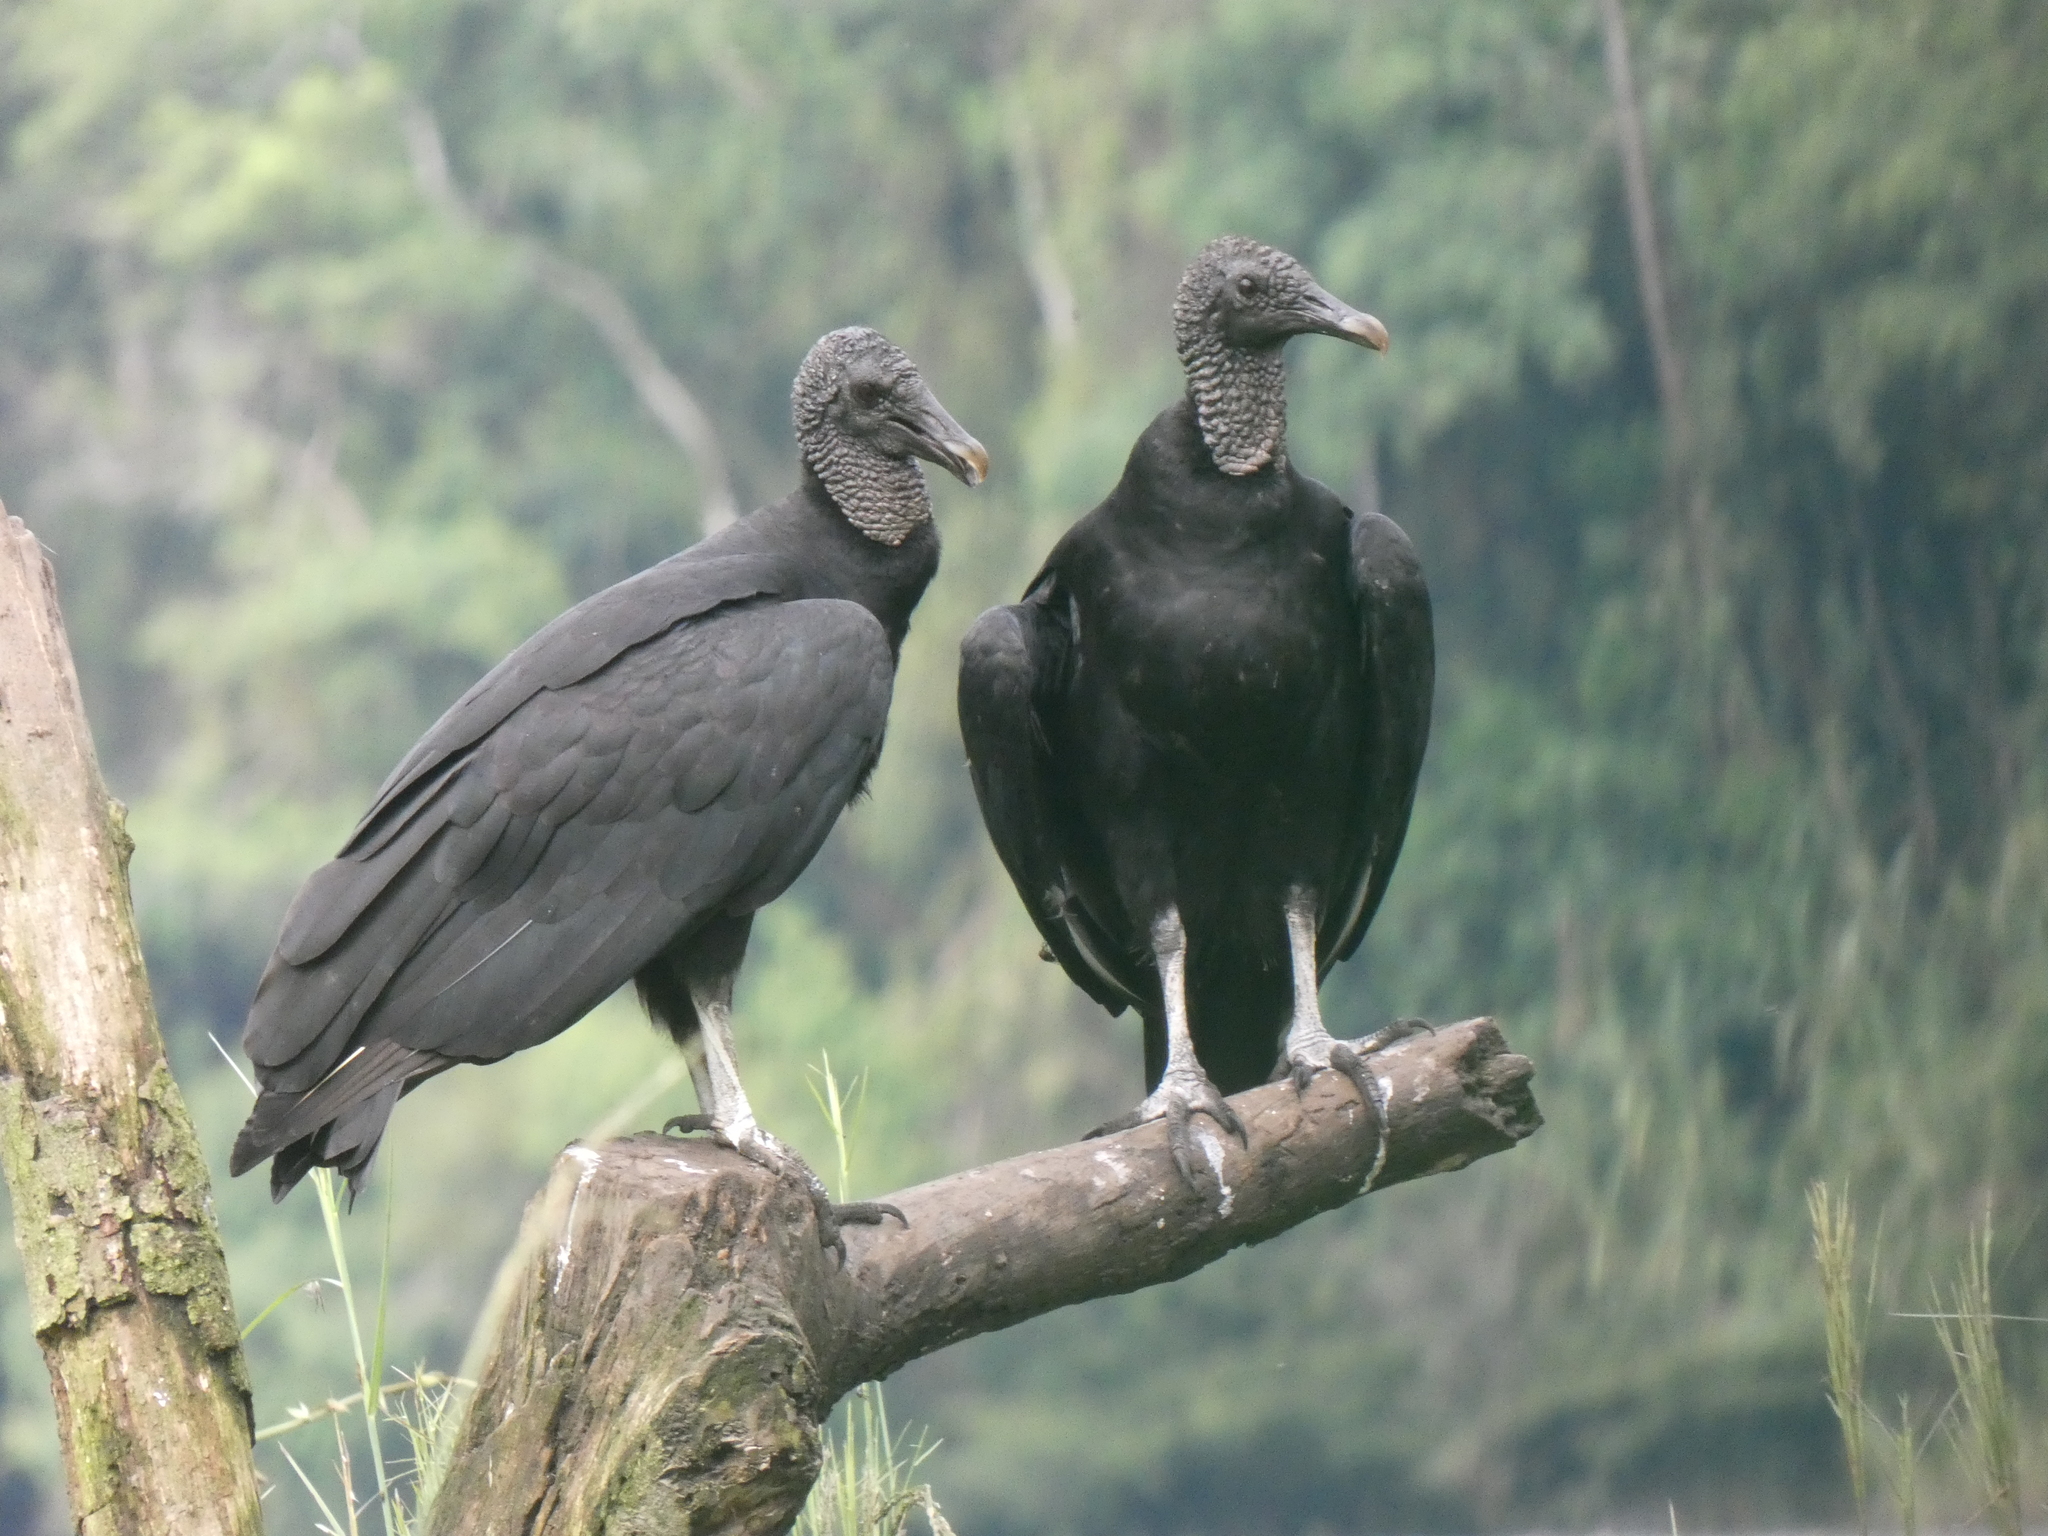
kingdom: Animalia
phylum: Chordata
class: Aves
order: Accipitriformes
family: Cathartidae
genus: Coragyps
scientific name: Coragyps atratus
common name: Black vulture
